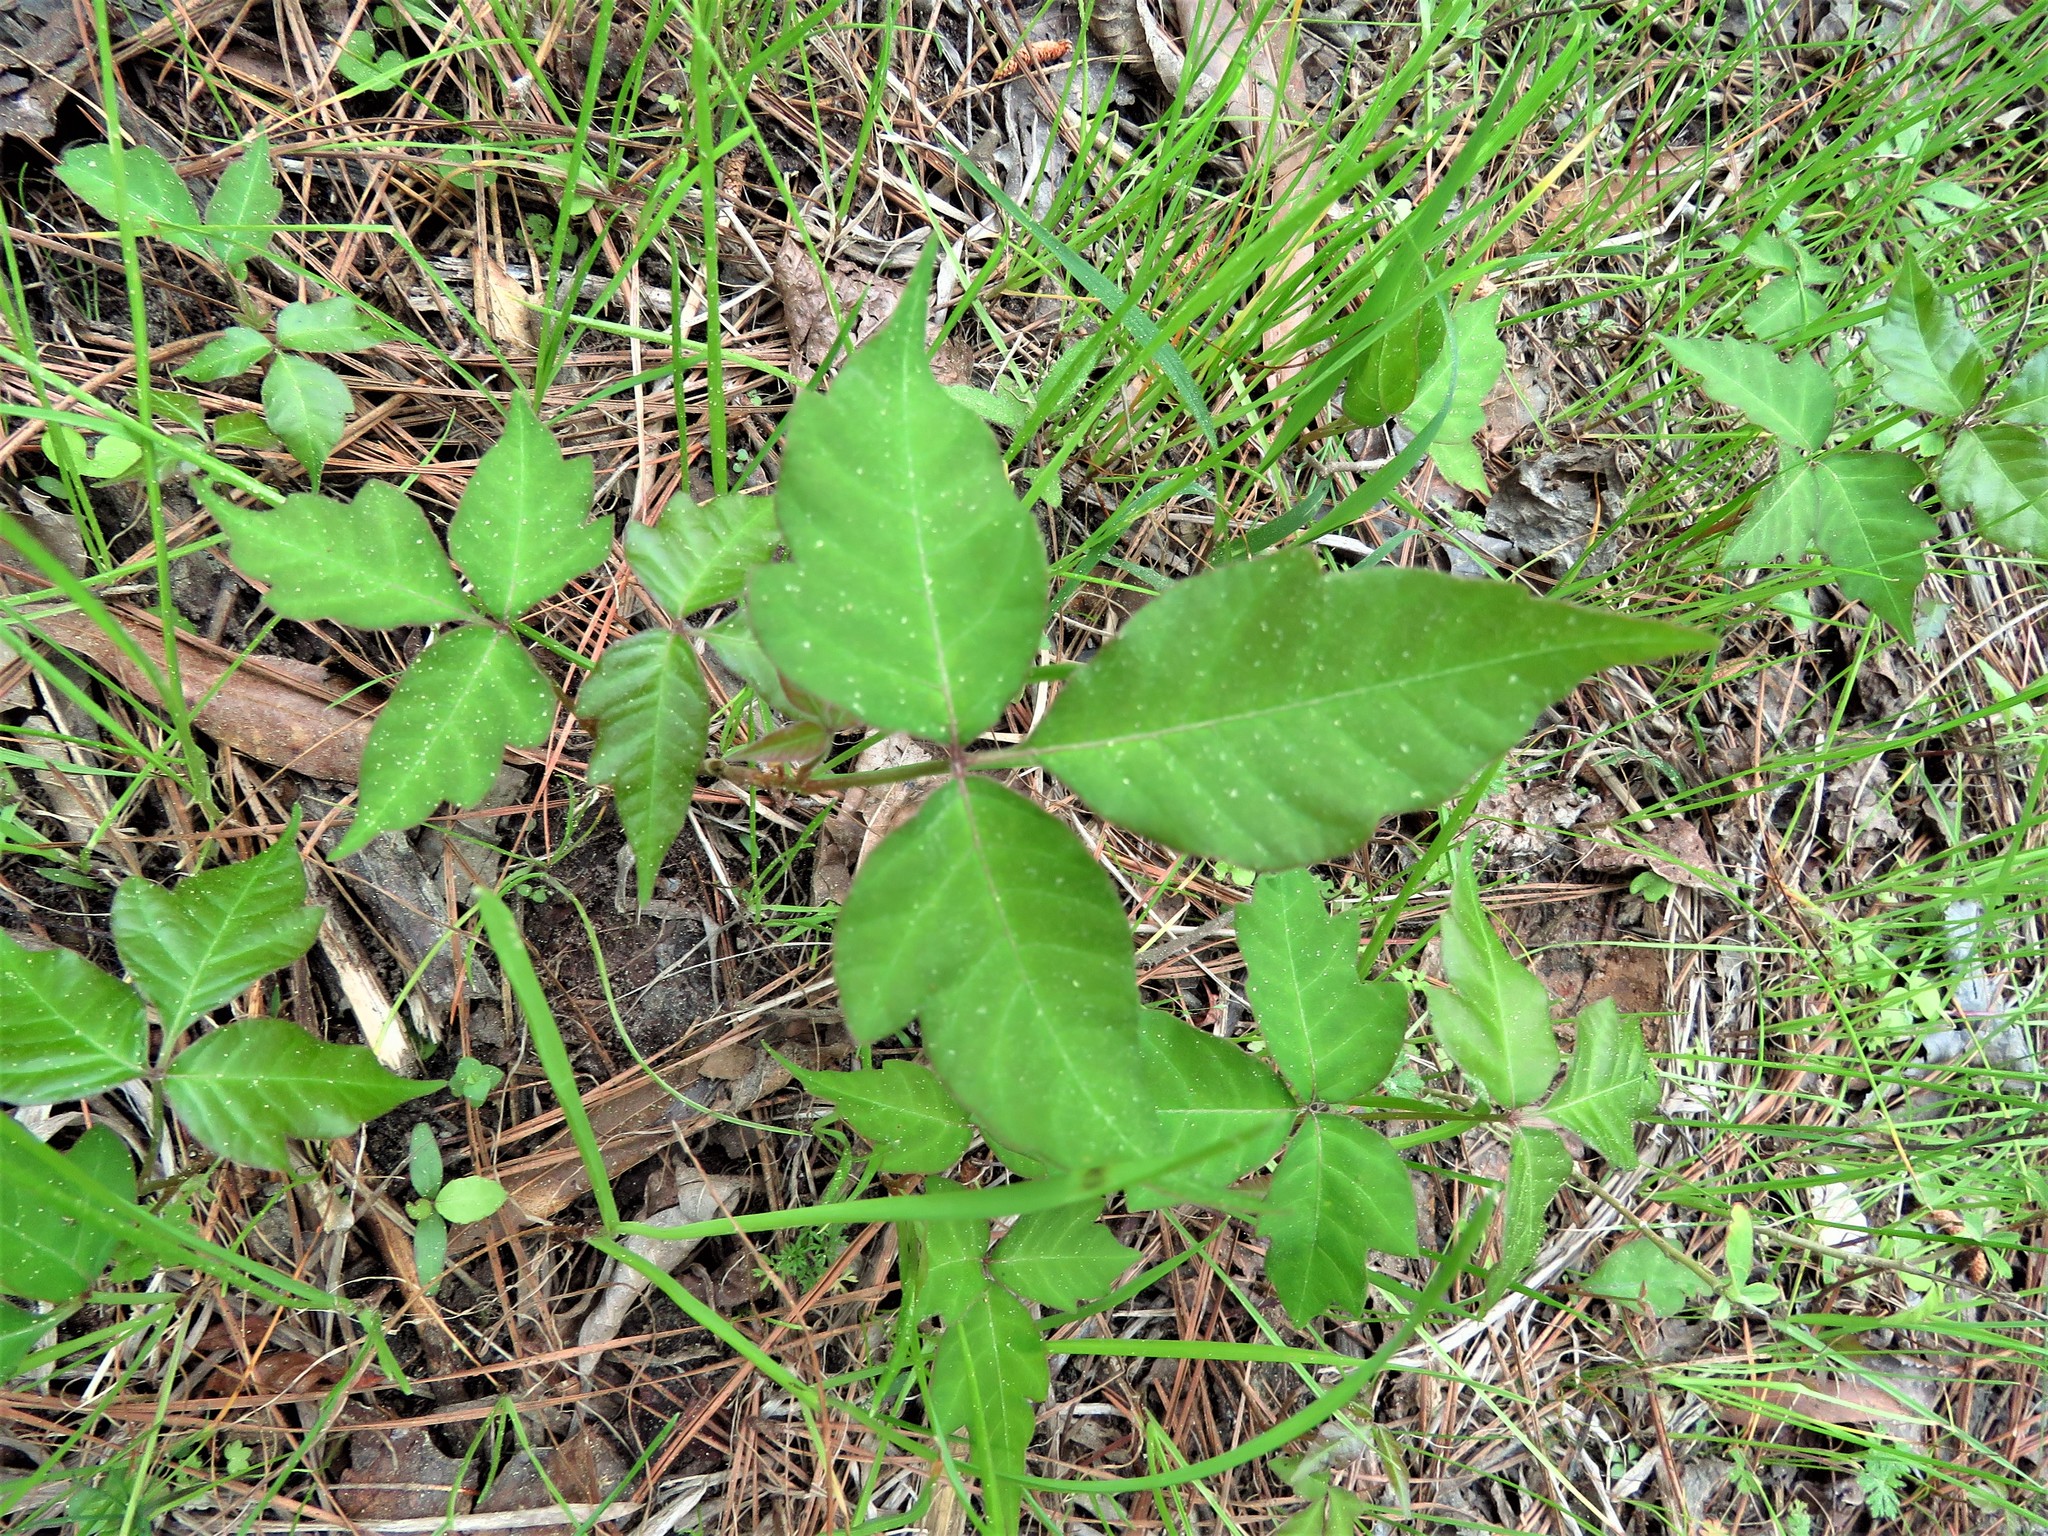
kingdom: Plantae
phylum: Tracheophyta
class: Magnoliopsida
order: Sapindales
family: Anacardiaceae
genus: Toxicodendron
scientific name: Toxicodendron radicans
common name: Poison ivy
